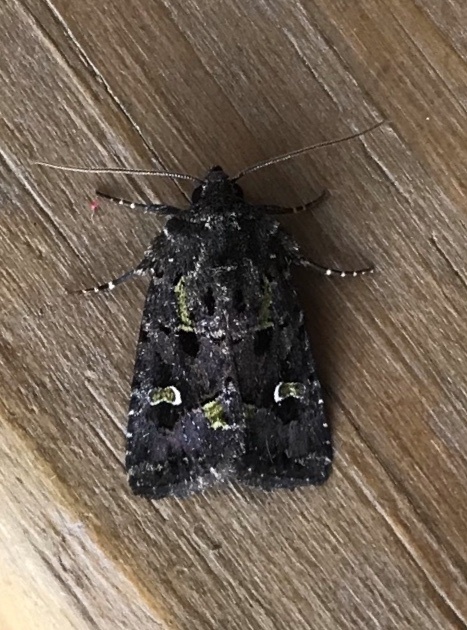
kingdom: Animalia
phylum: Arthropoda
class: Insecta
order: Lepidoptera
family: Noctuidae
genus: Lacinipolia
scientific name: Lacinipolia renigera
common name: Kidney-spotted minor
